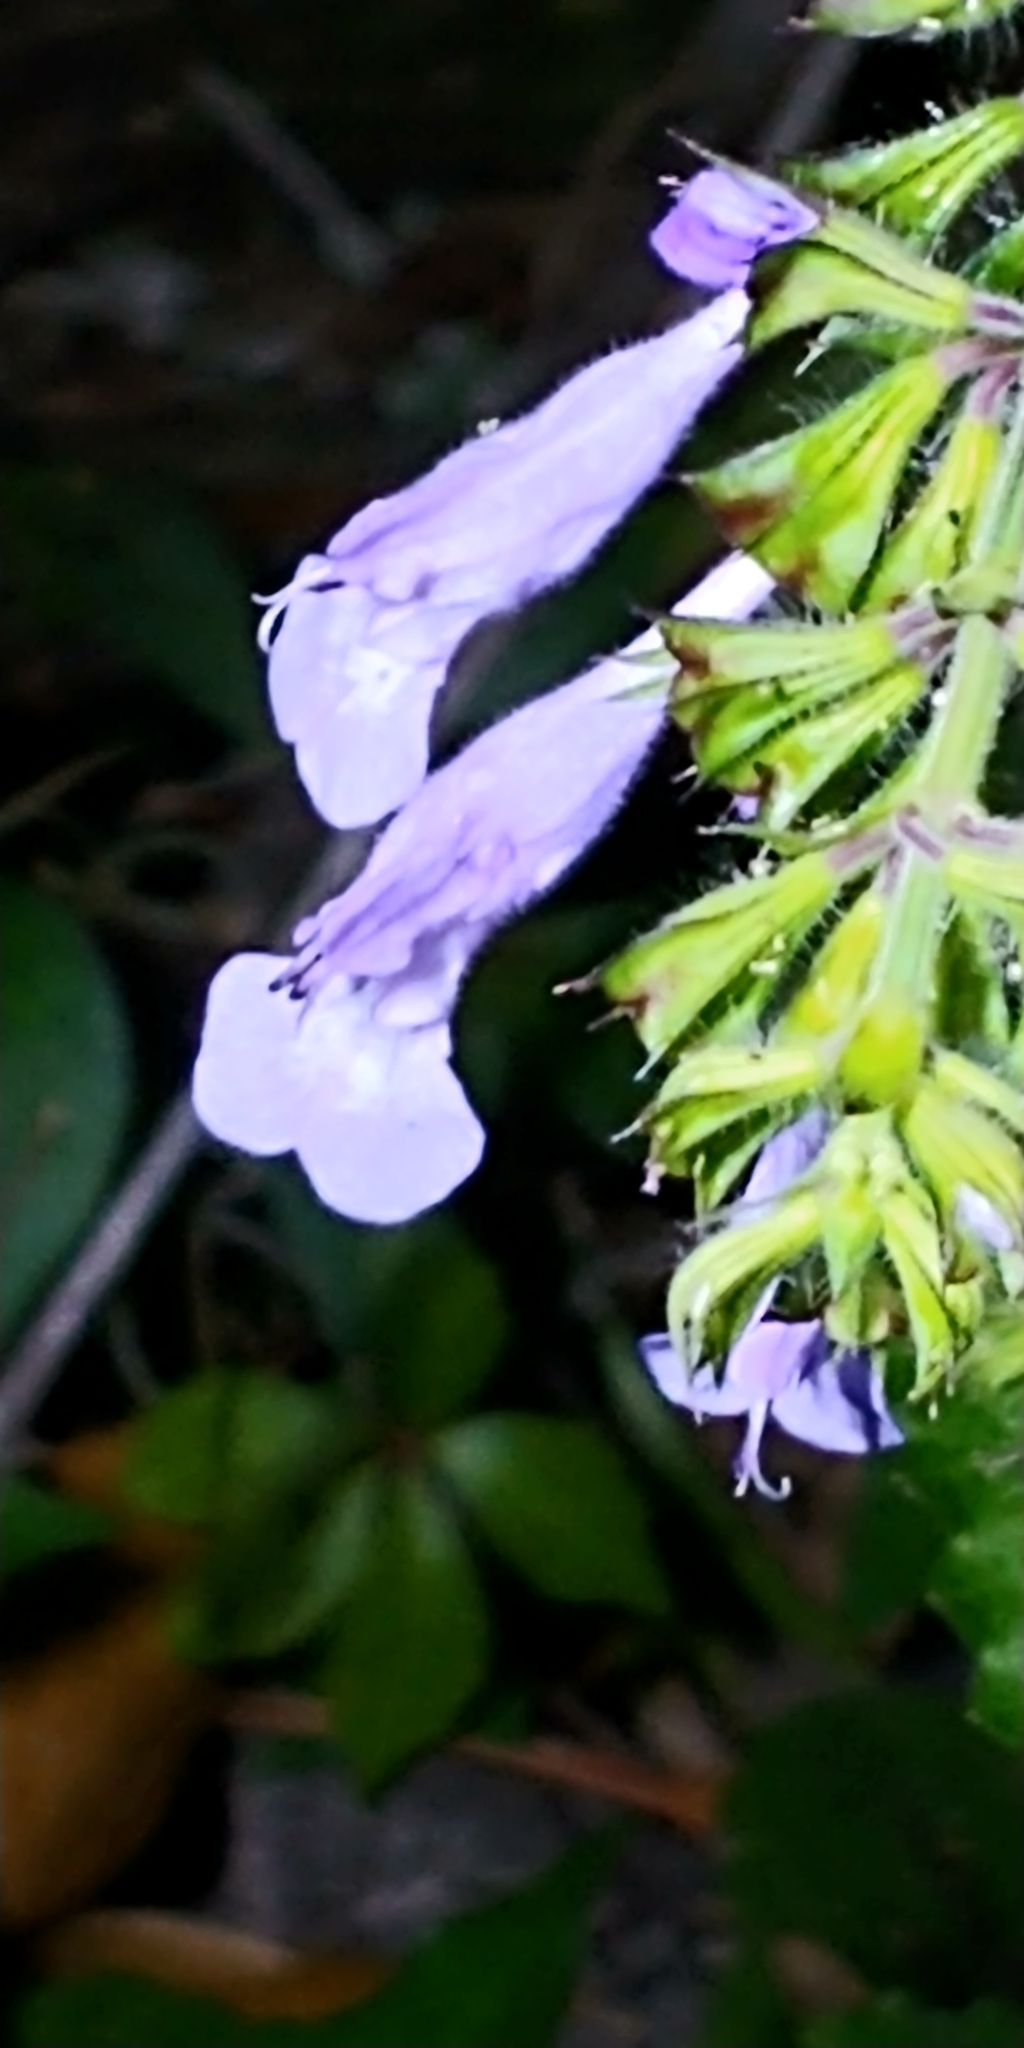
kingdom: Plantae
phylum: Tracheophyta
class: Magnoliopsida
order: Lamiales
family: Lamiaceae
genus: Salvia
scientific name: Salvia lyrata
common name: Cancerweed
